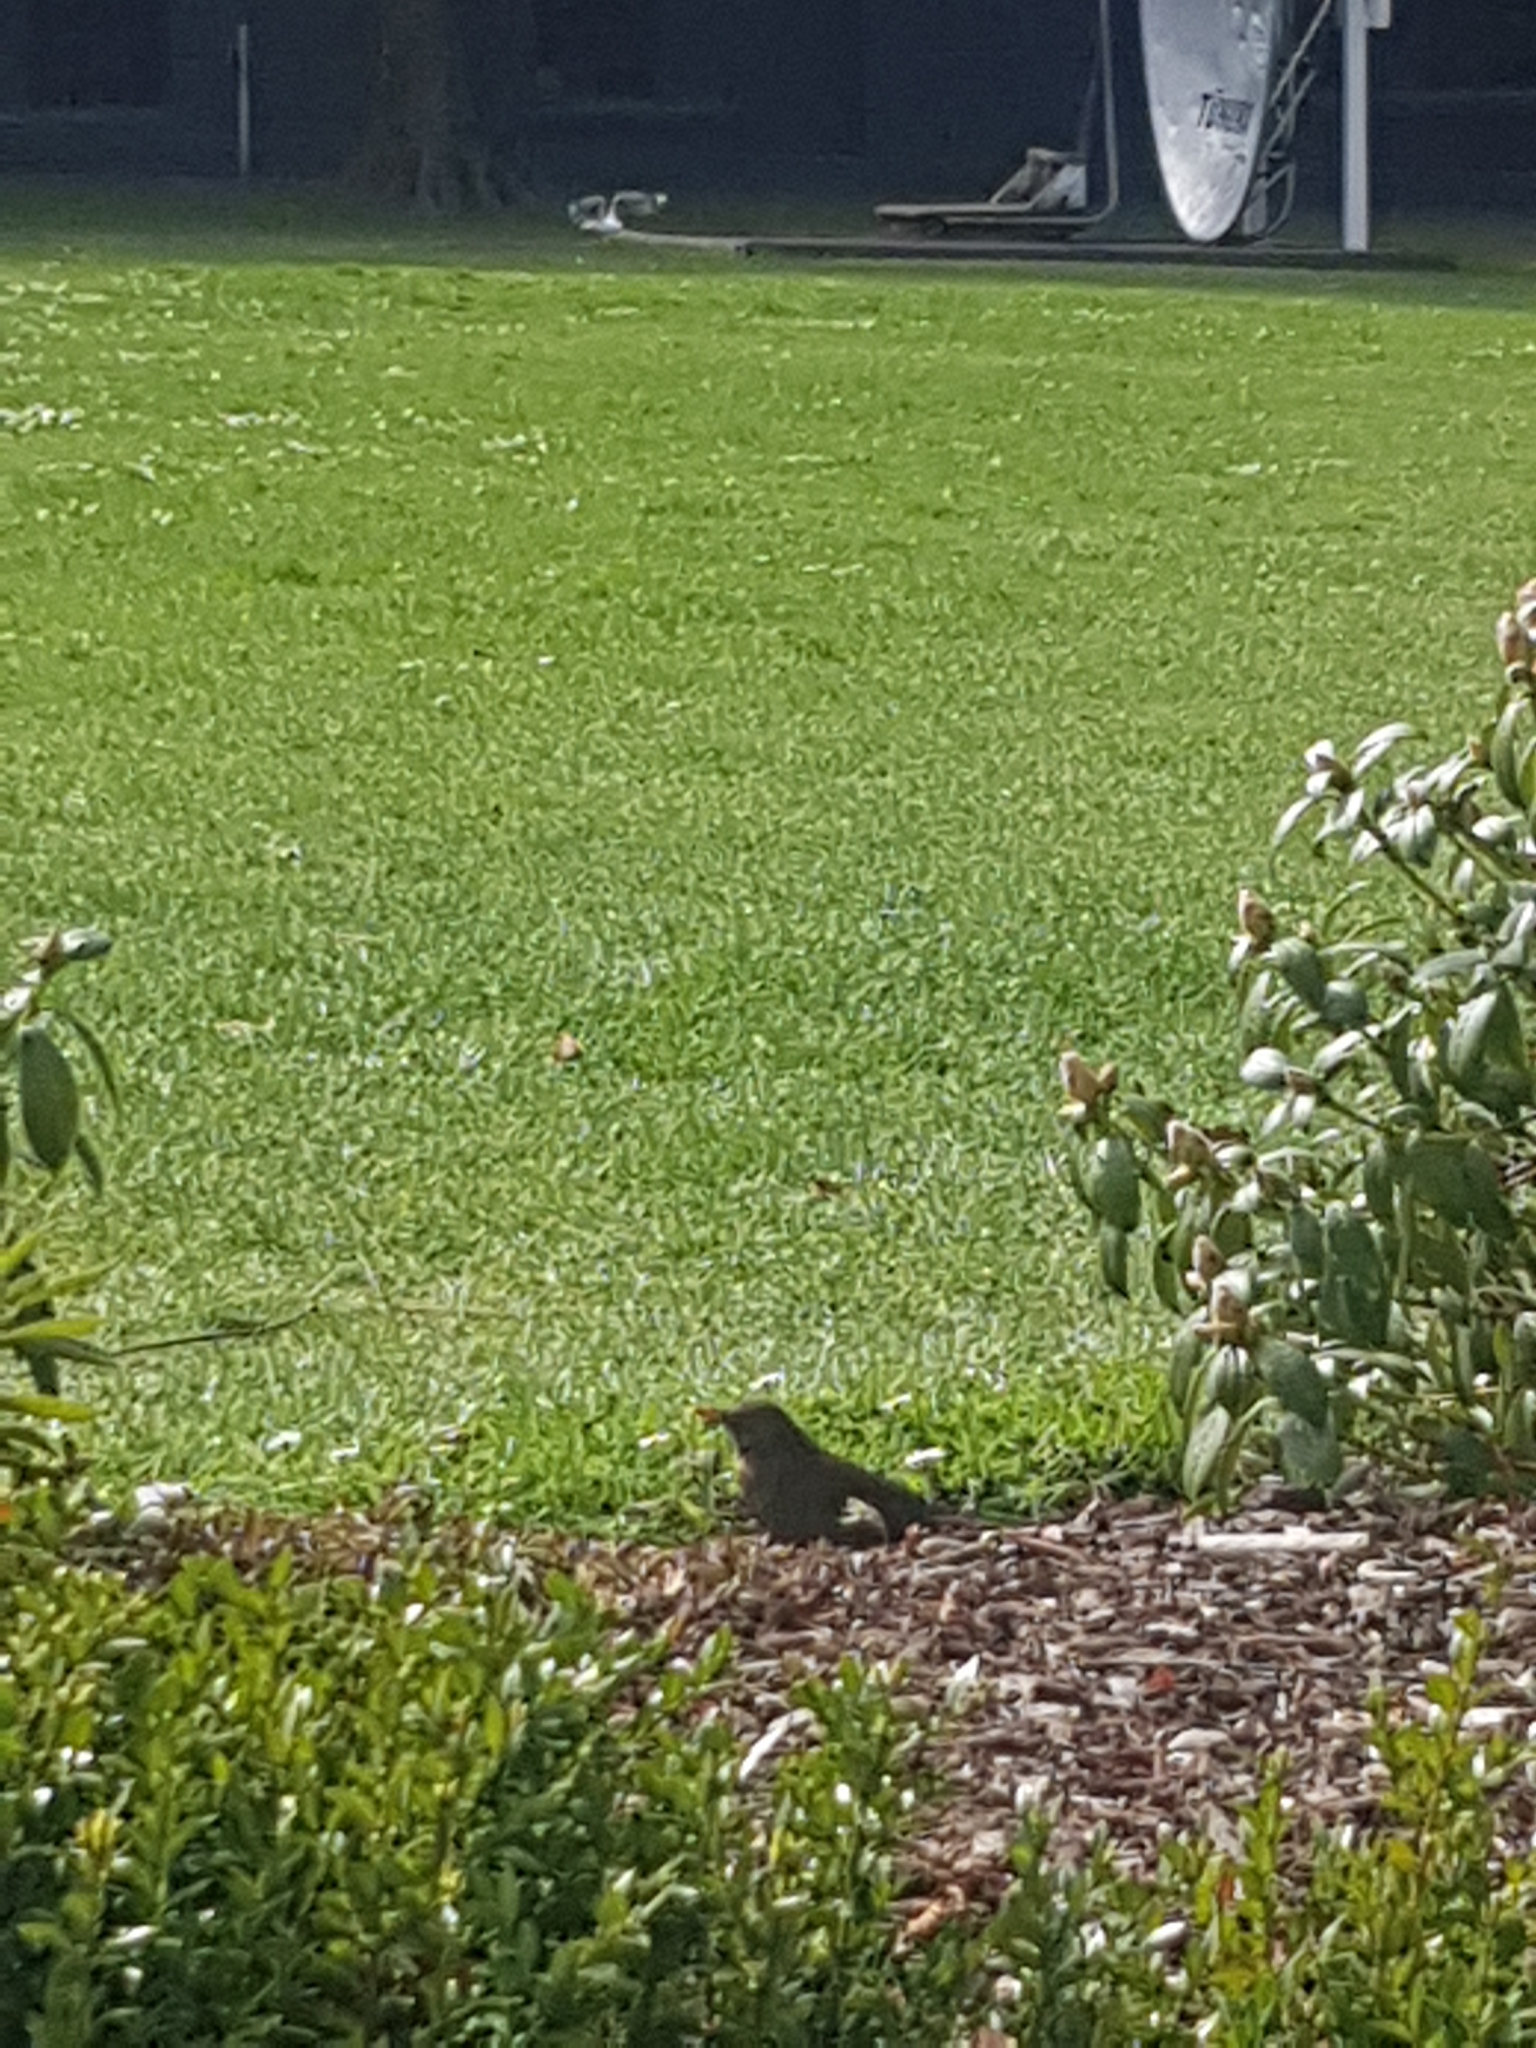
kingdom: Animalia
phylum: Chordata
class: Aves
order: Passeriformes
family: Turdidae
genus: Turdus
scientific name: Turdus merula
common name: Common blackbird
